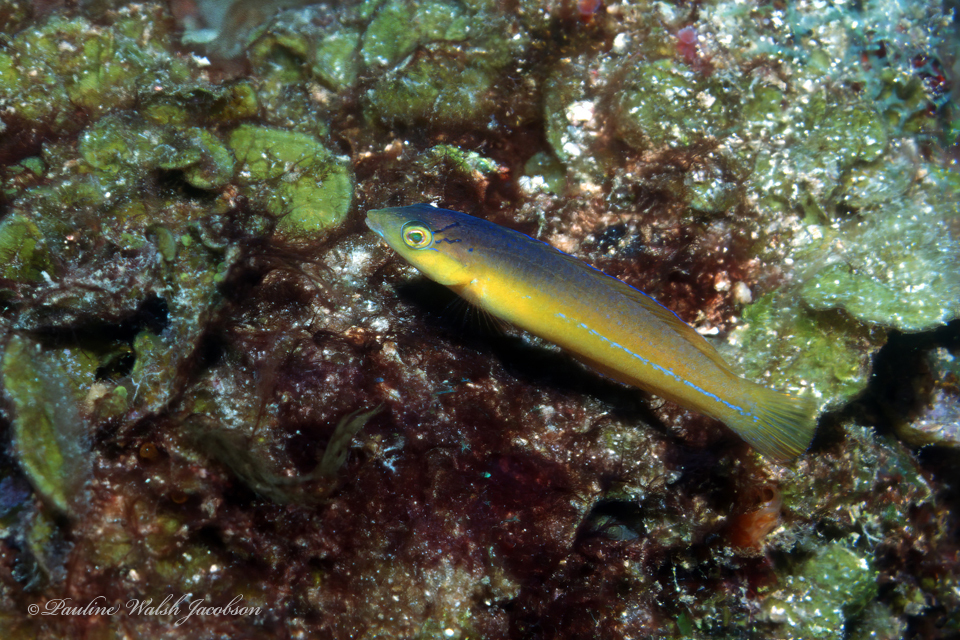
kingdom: Animalia
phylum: Chordata
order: Perciformes
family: Labridae
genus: Halichoeres
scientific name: Halichoeres garnoti
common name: Yellowhead wrasse
